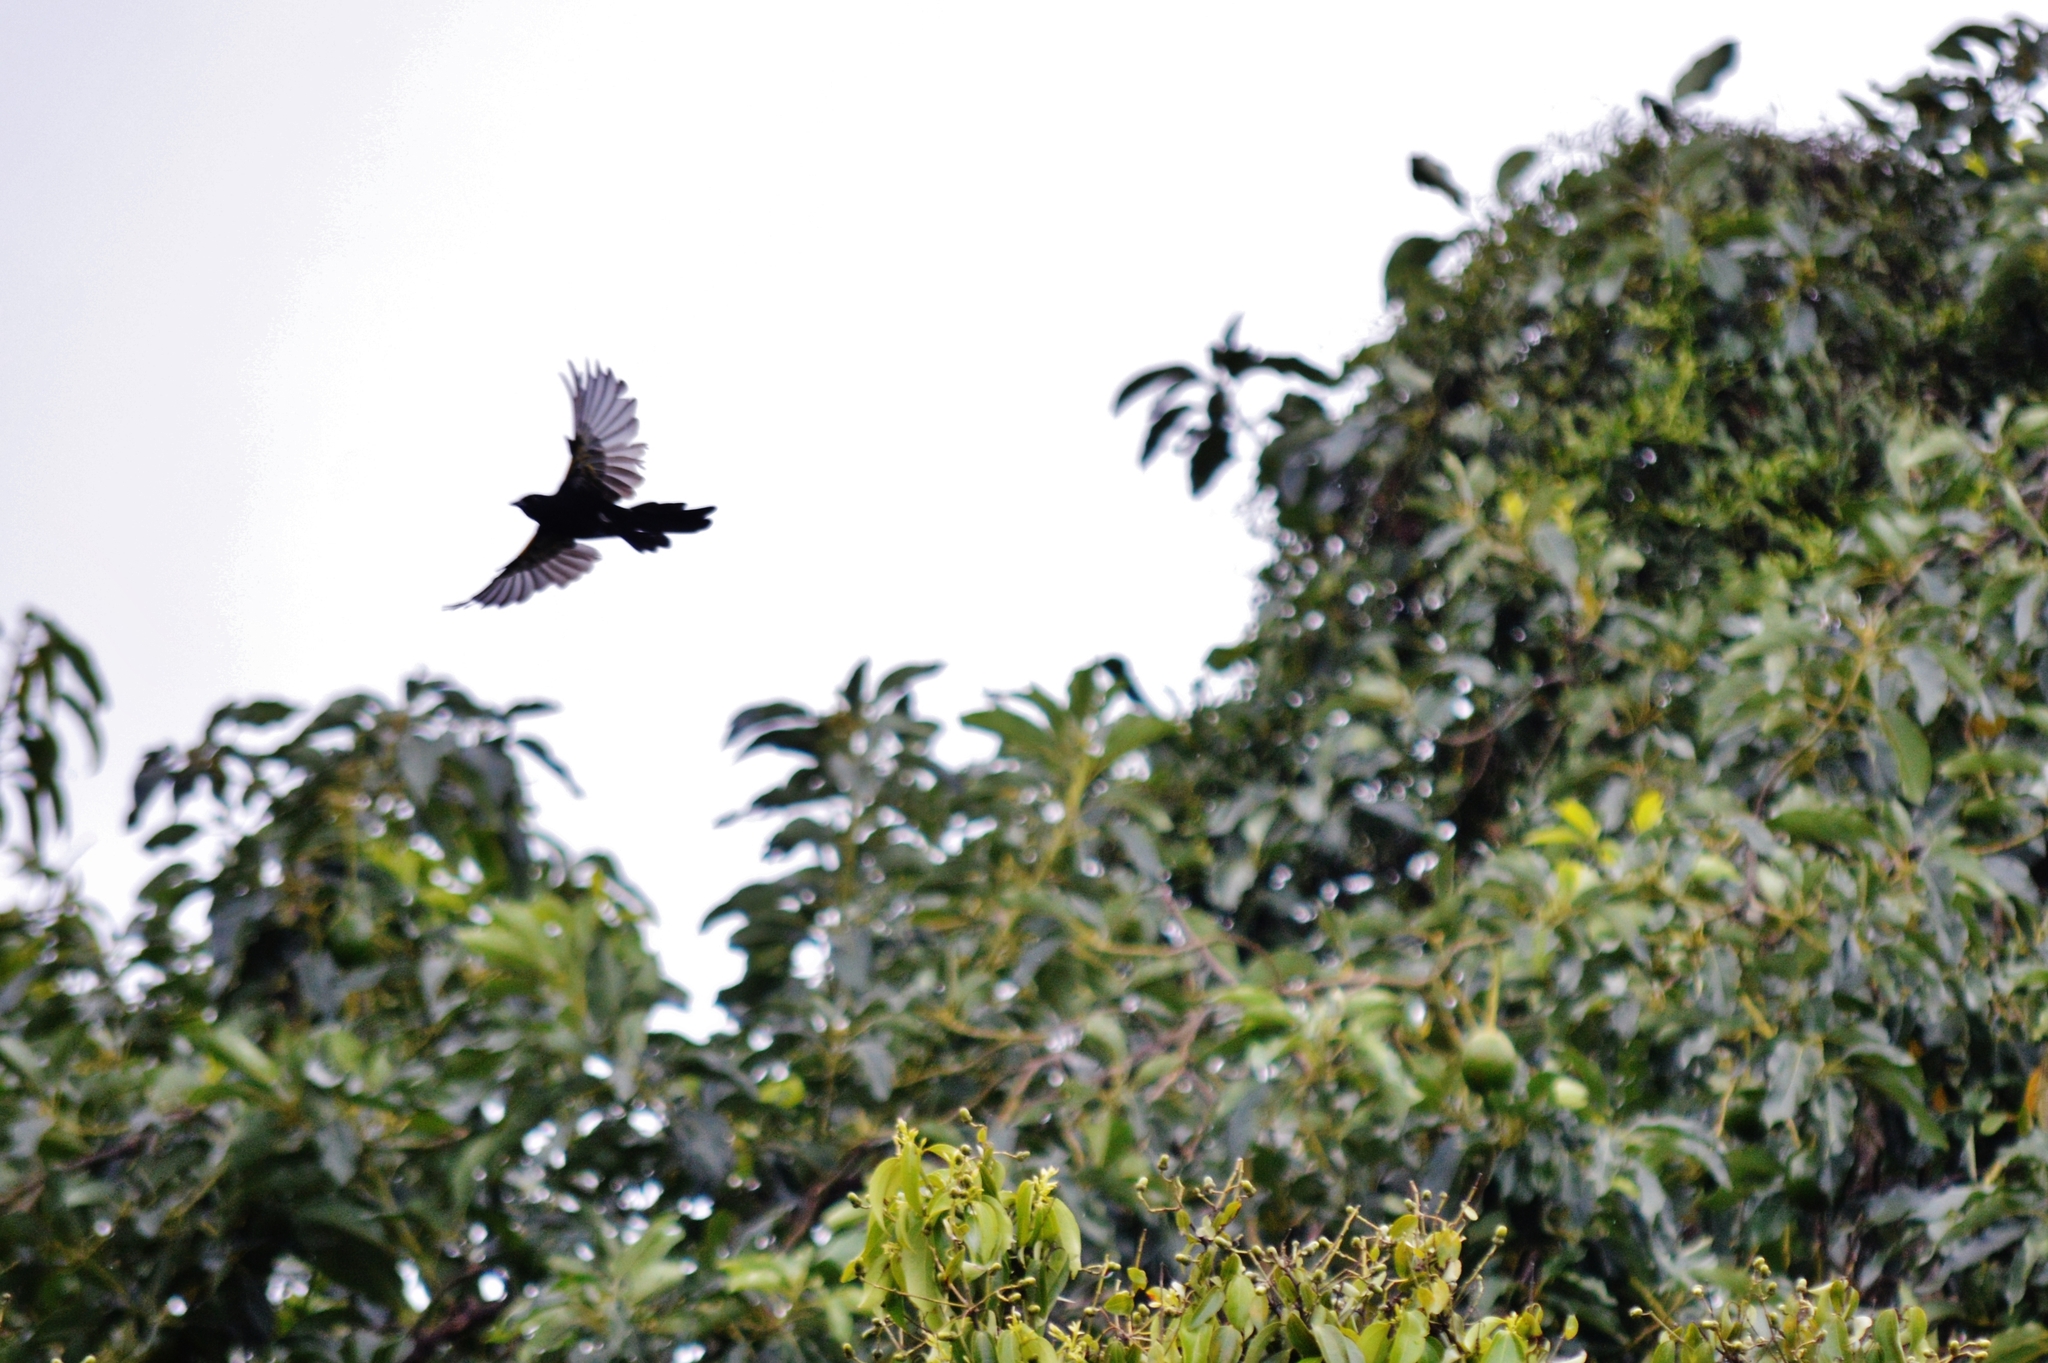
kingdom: Animalia
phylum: Chordata
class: Aves
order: Passeriformes
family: Icteridae
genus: Icterus
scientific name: Icterus cayanensis
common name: Epaulet oriole
